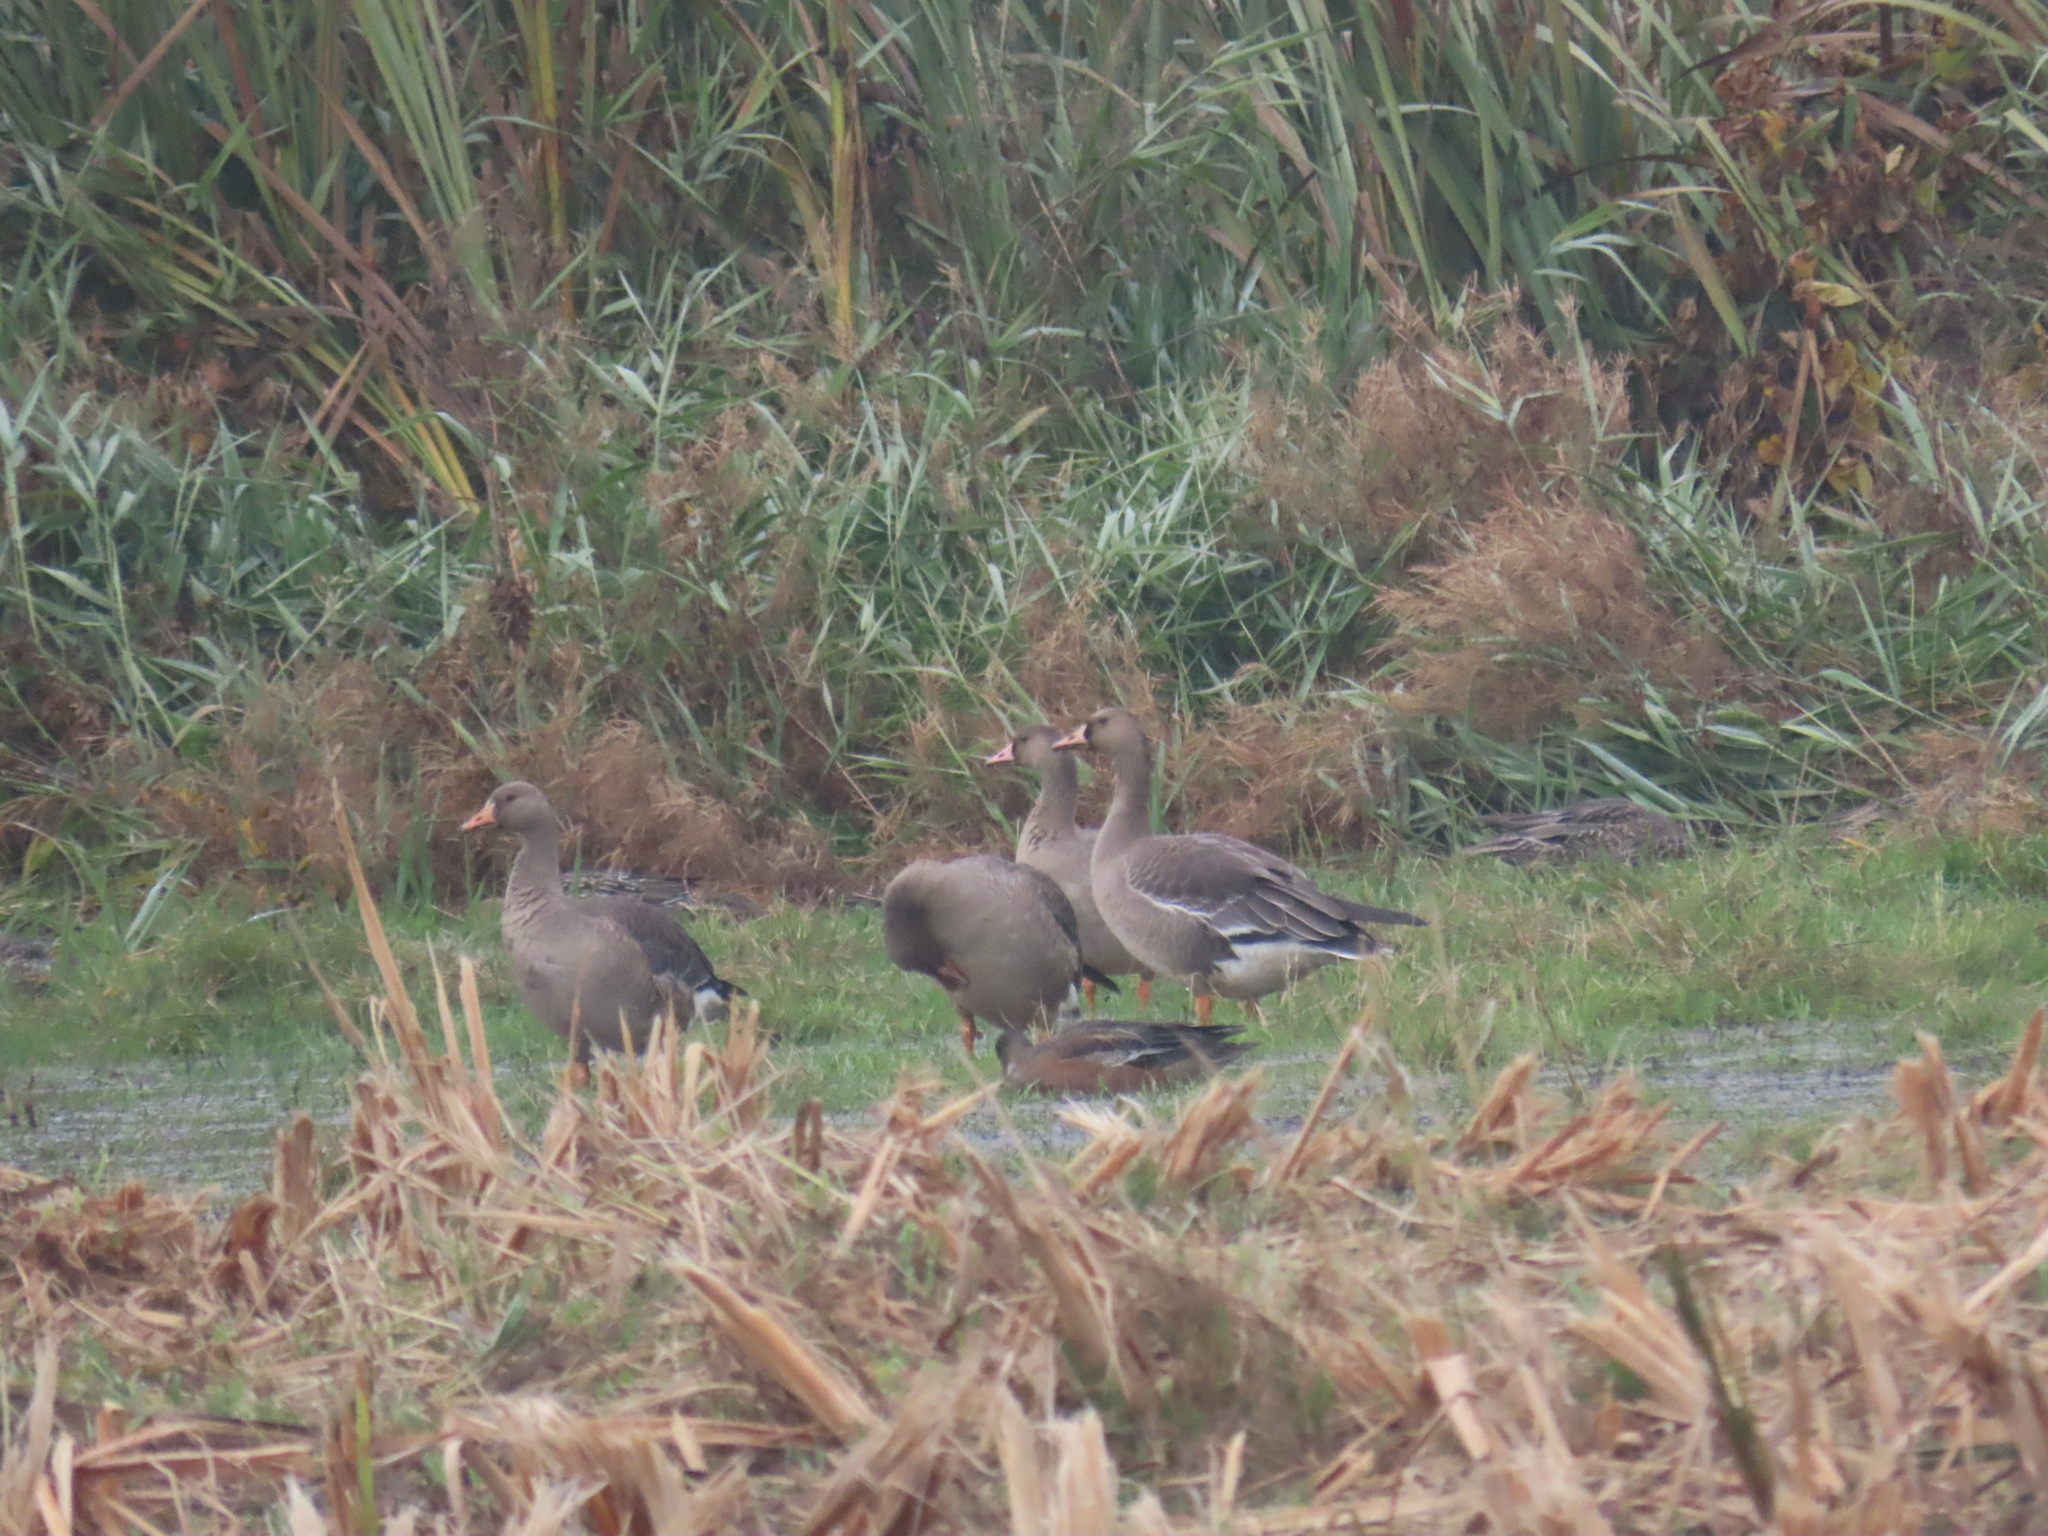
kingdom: Animalia
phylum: Chordata
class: Aves
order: Anseriformes
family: Anatidae
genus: Anser
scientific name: Anser albifrons
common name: Greater white-fronted goose
